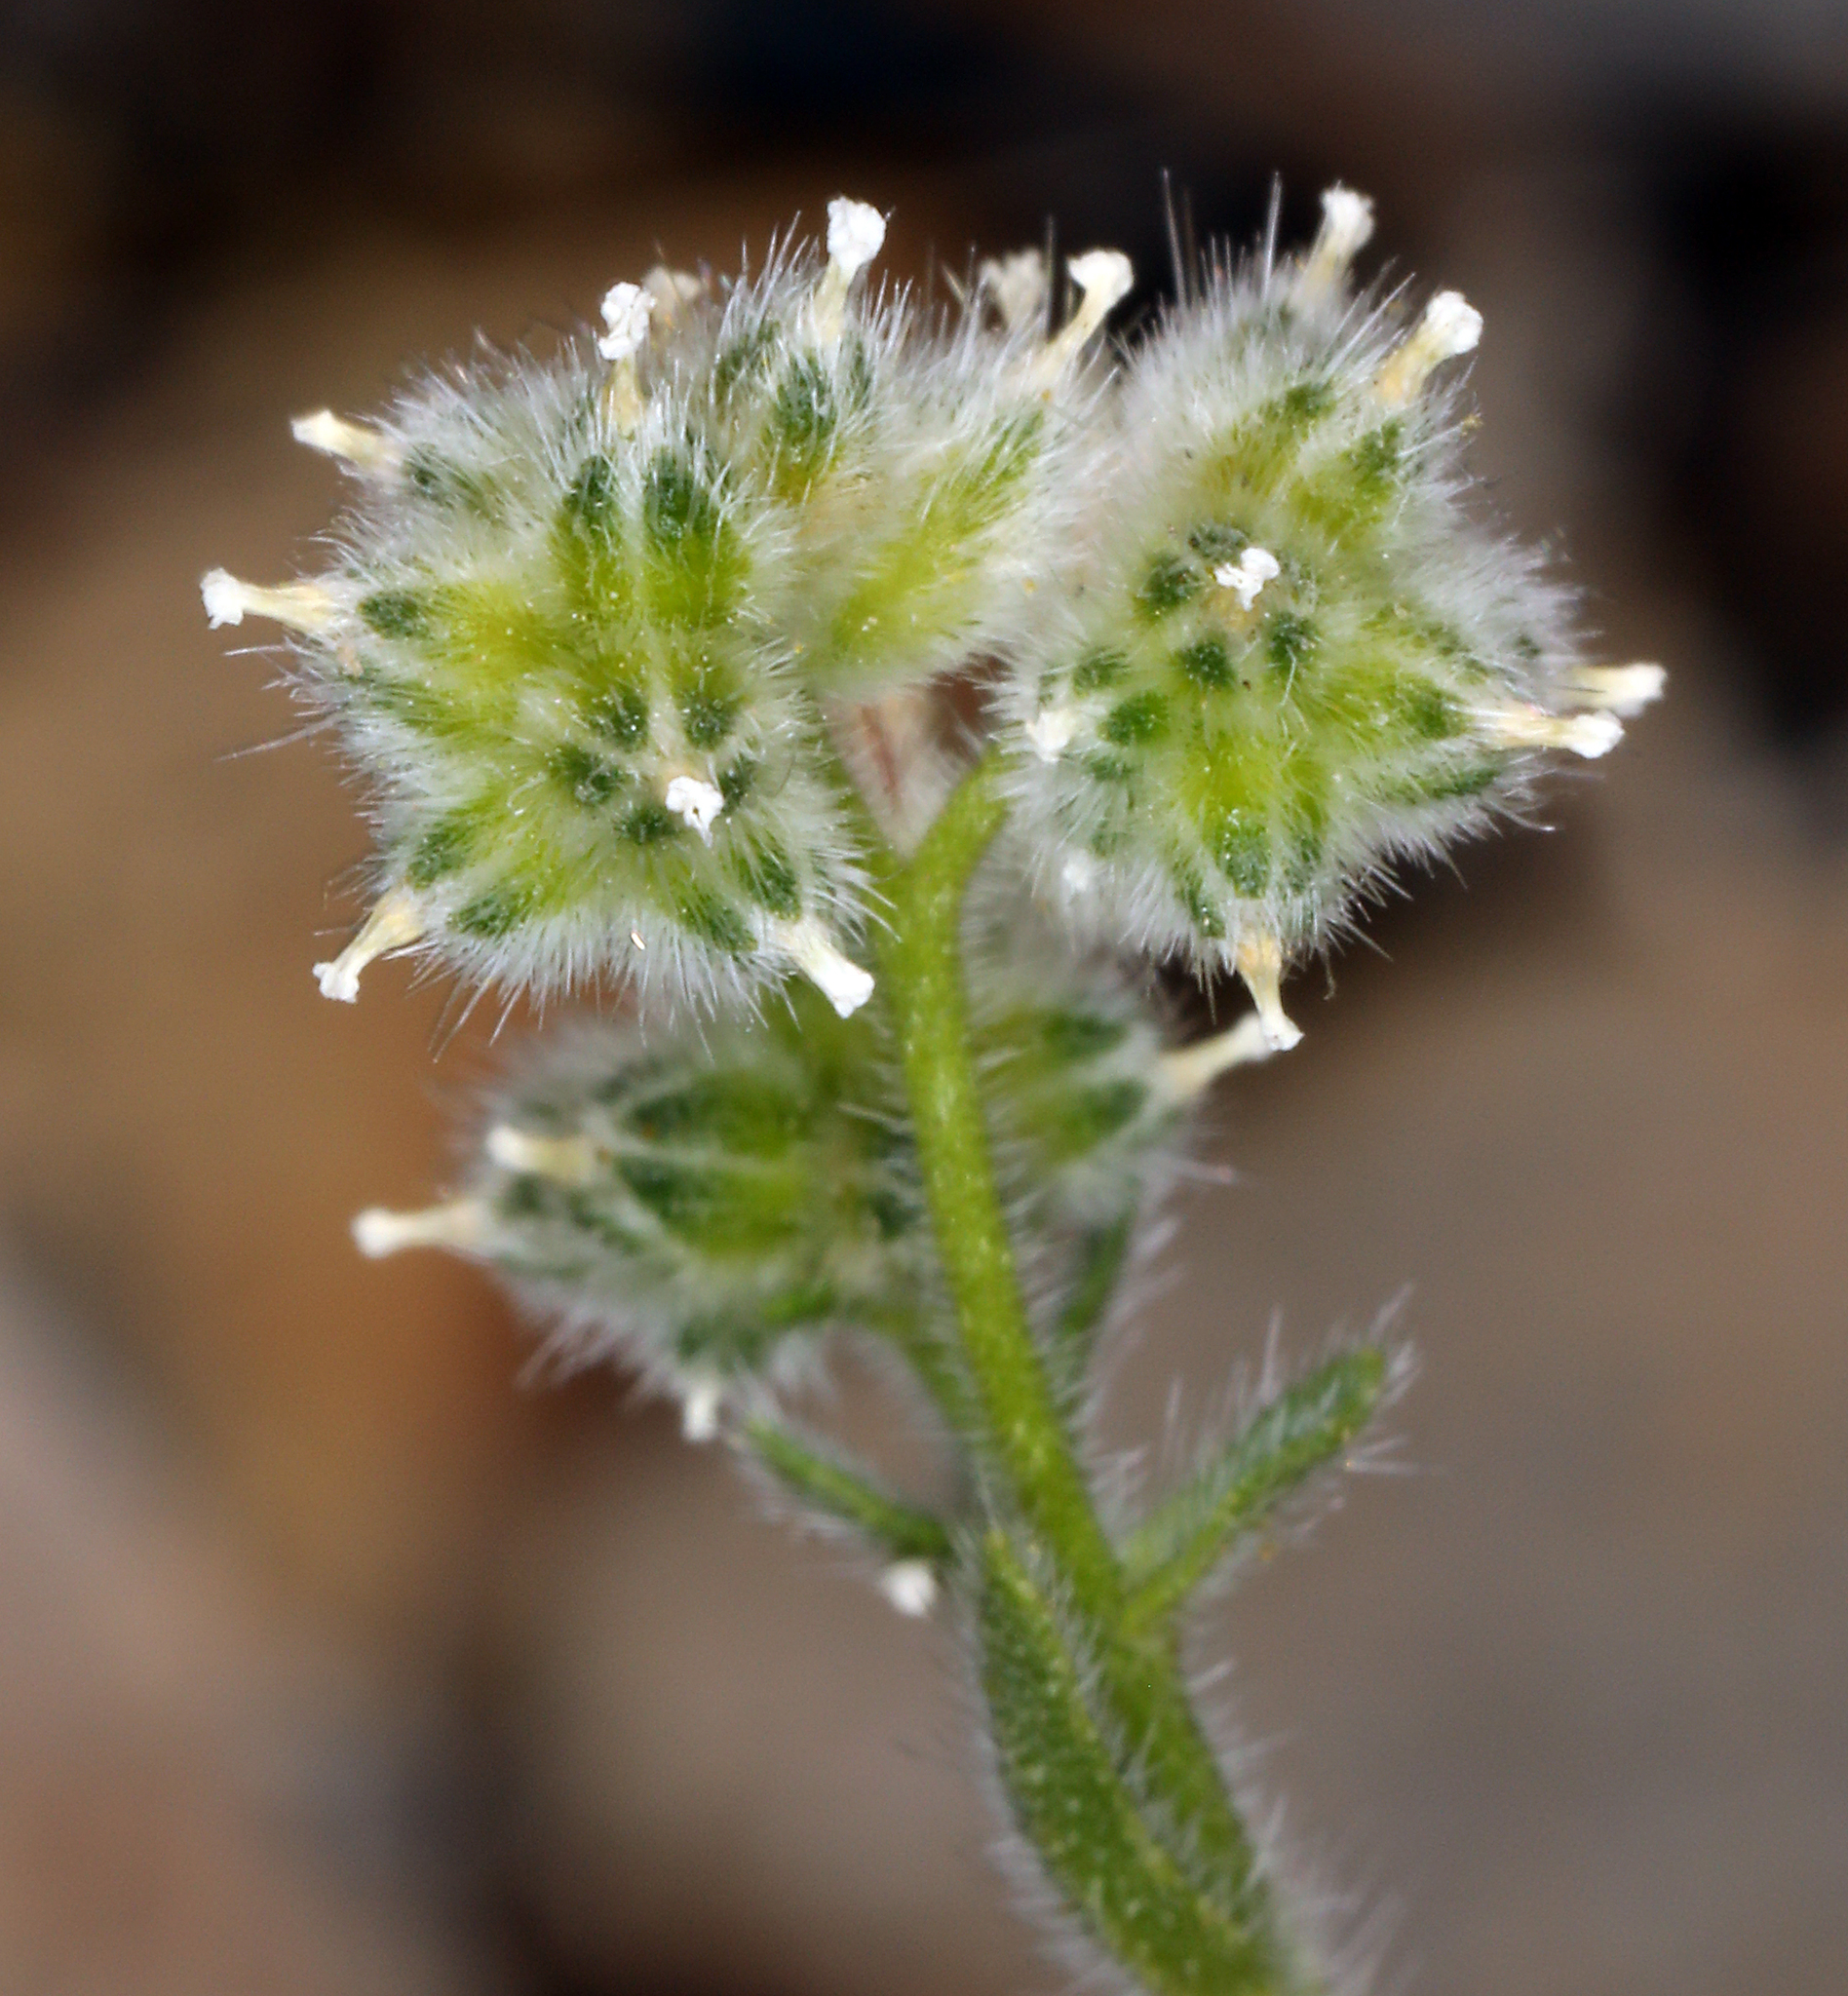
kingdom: Plantae
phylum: Tracheophyta
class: Magnoliopsida
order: Boraginales
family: Boraginaceae
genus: Cryptantha
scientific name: Cryptantha pterocarya
